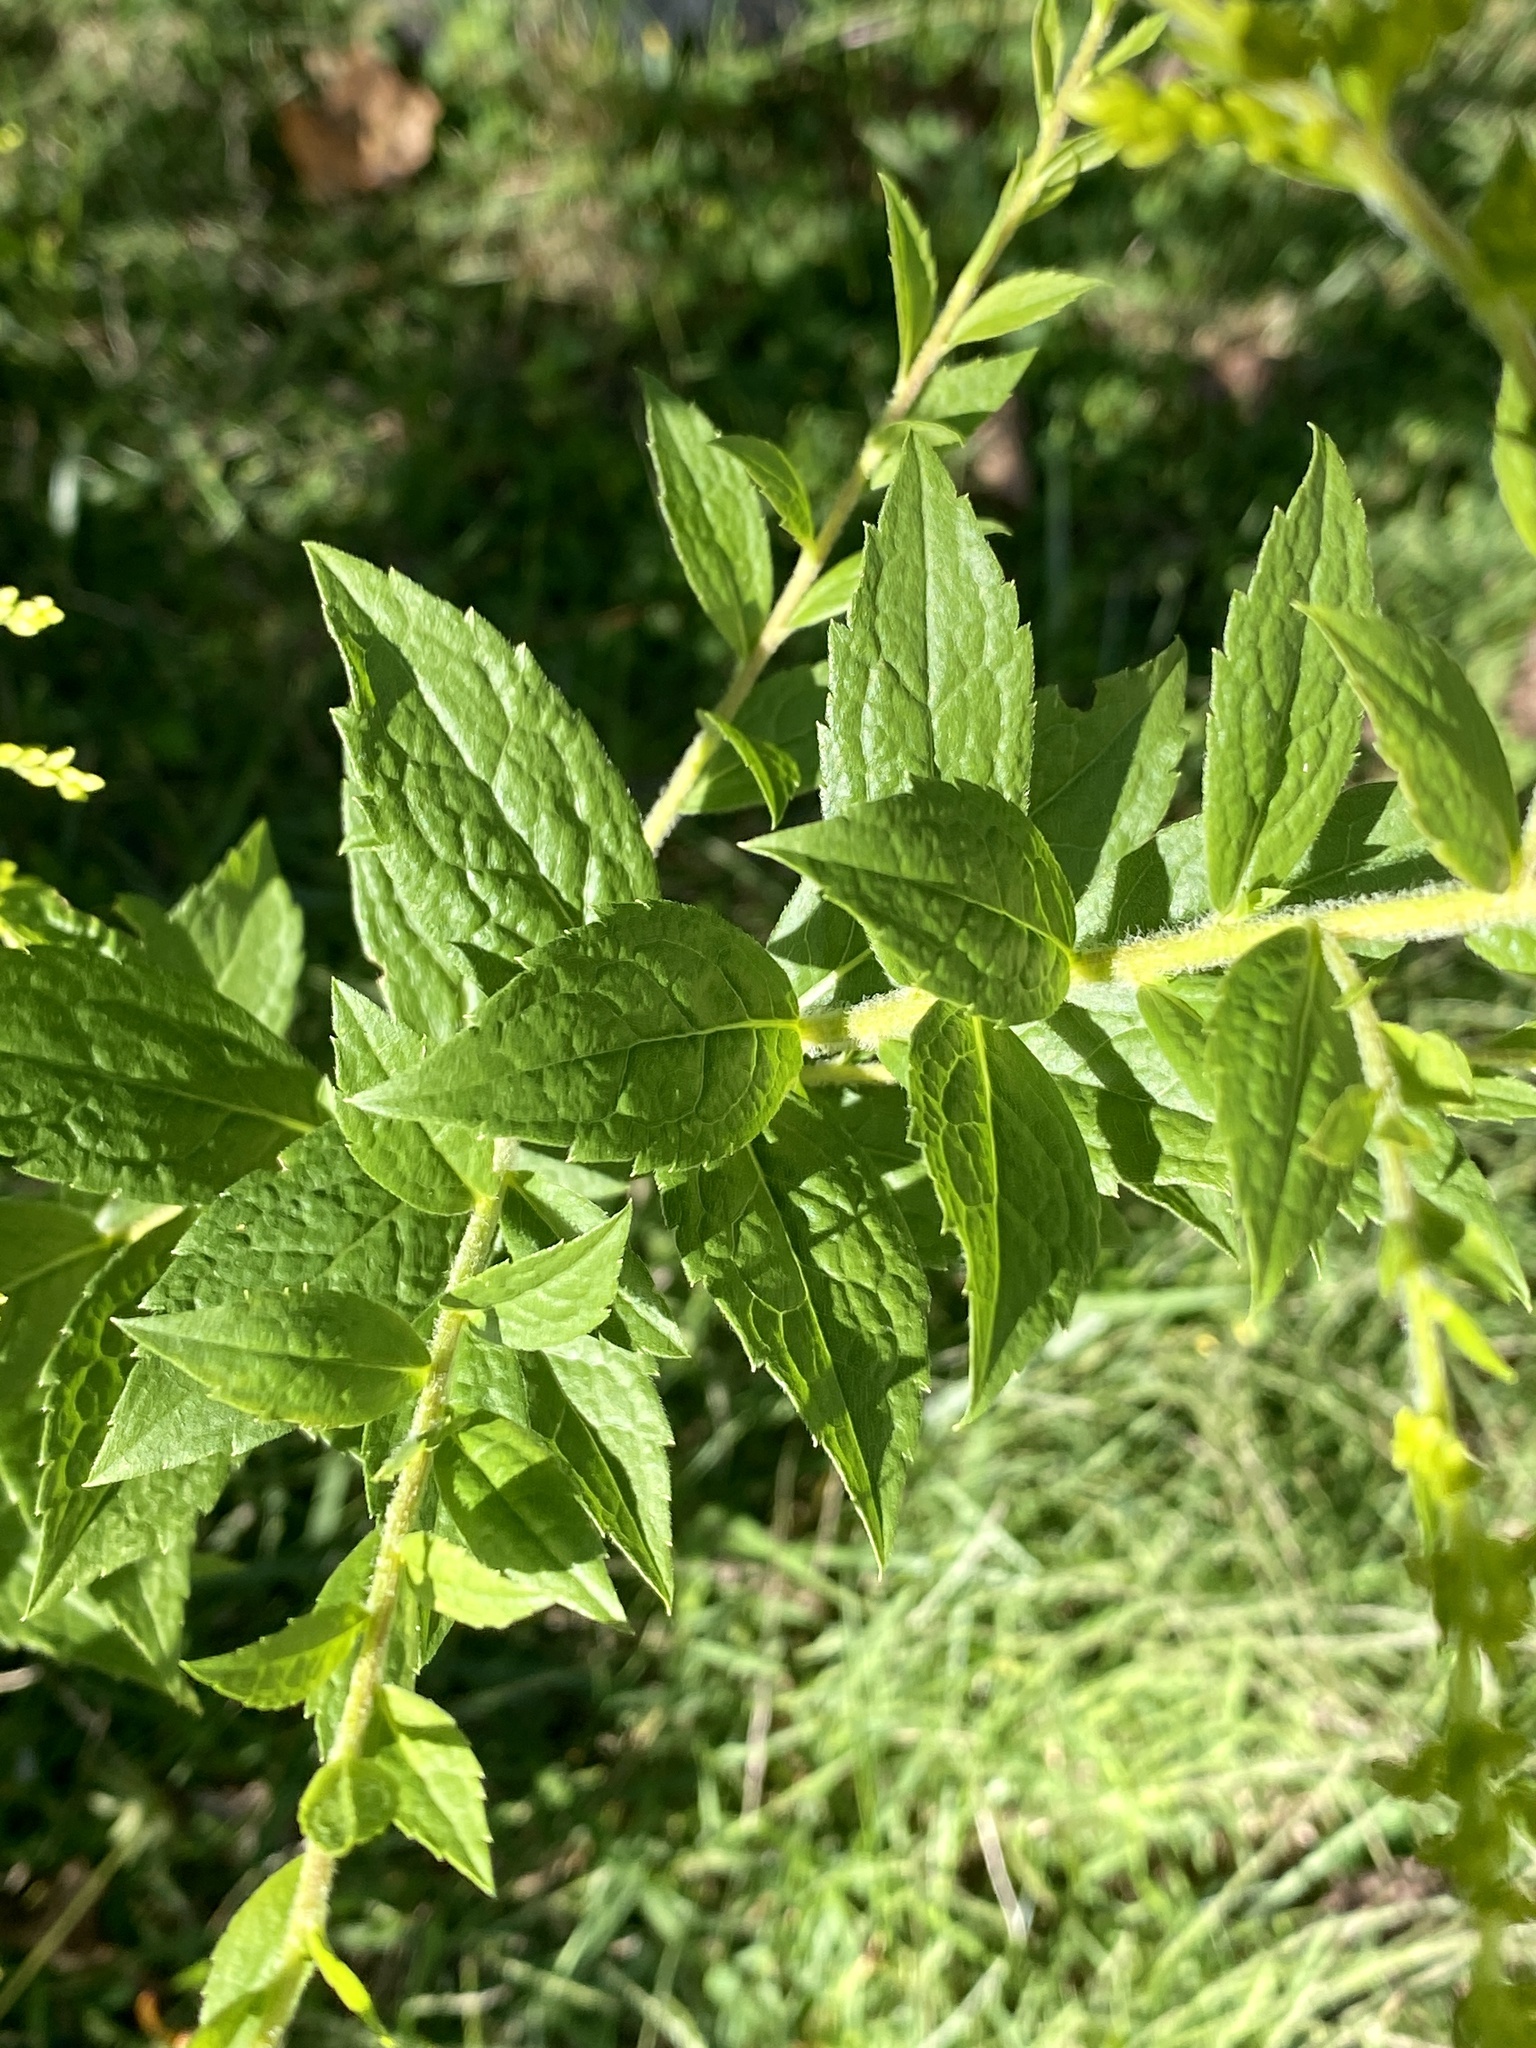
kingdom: Plantae
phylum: Tracheophyta
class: Magnoliopsida
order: Asterales
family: Asteraceae
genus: Solidago
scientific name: Solidago rugosa
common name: Rough-stemmed goldenrod
